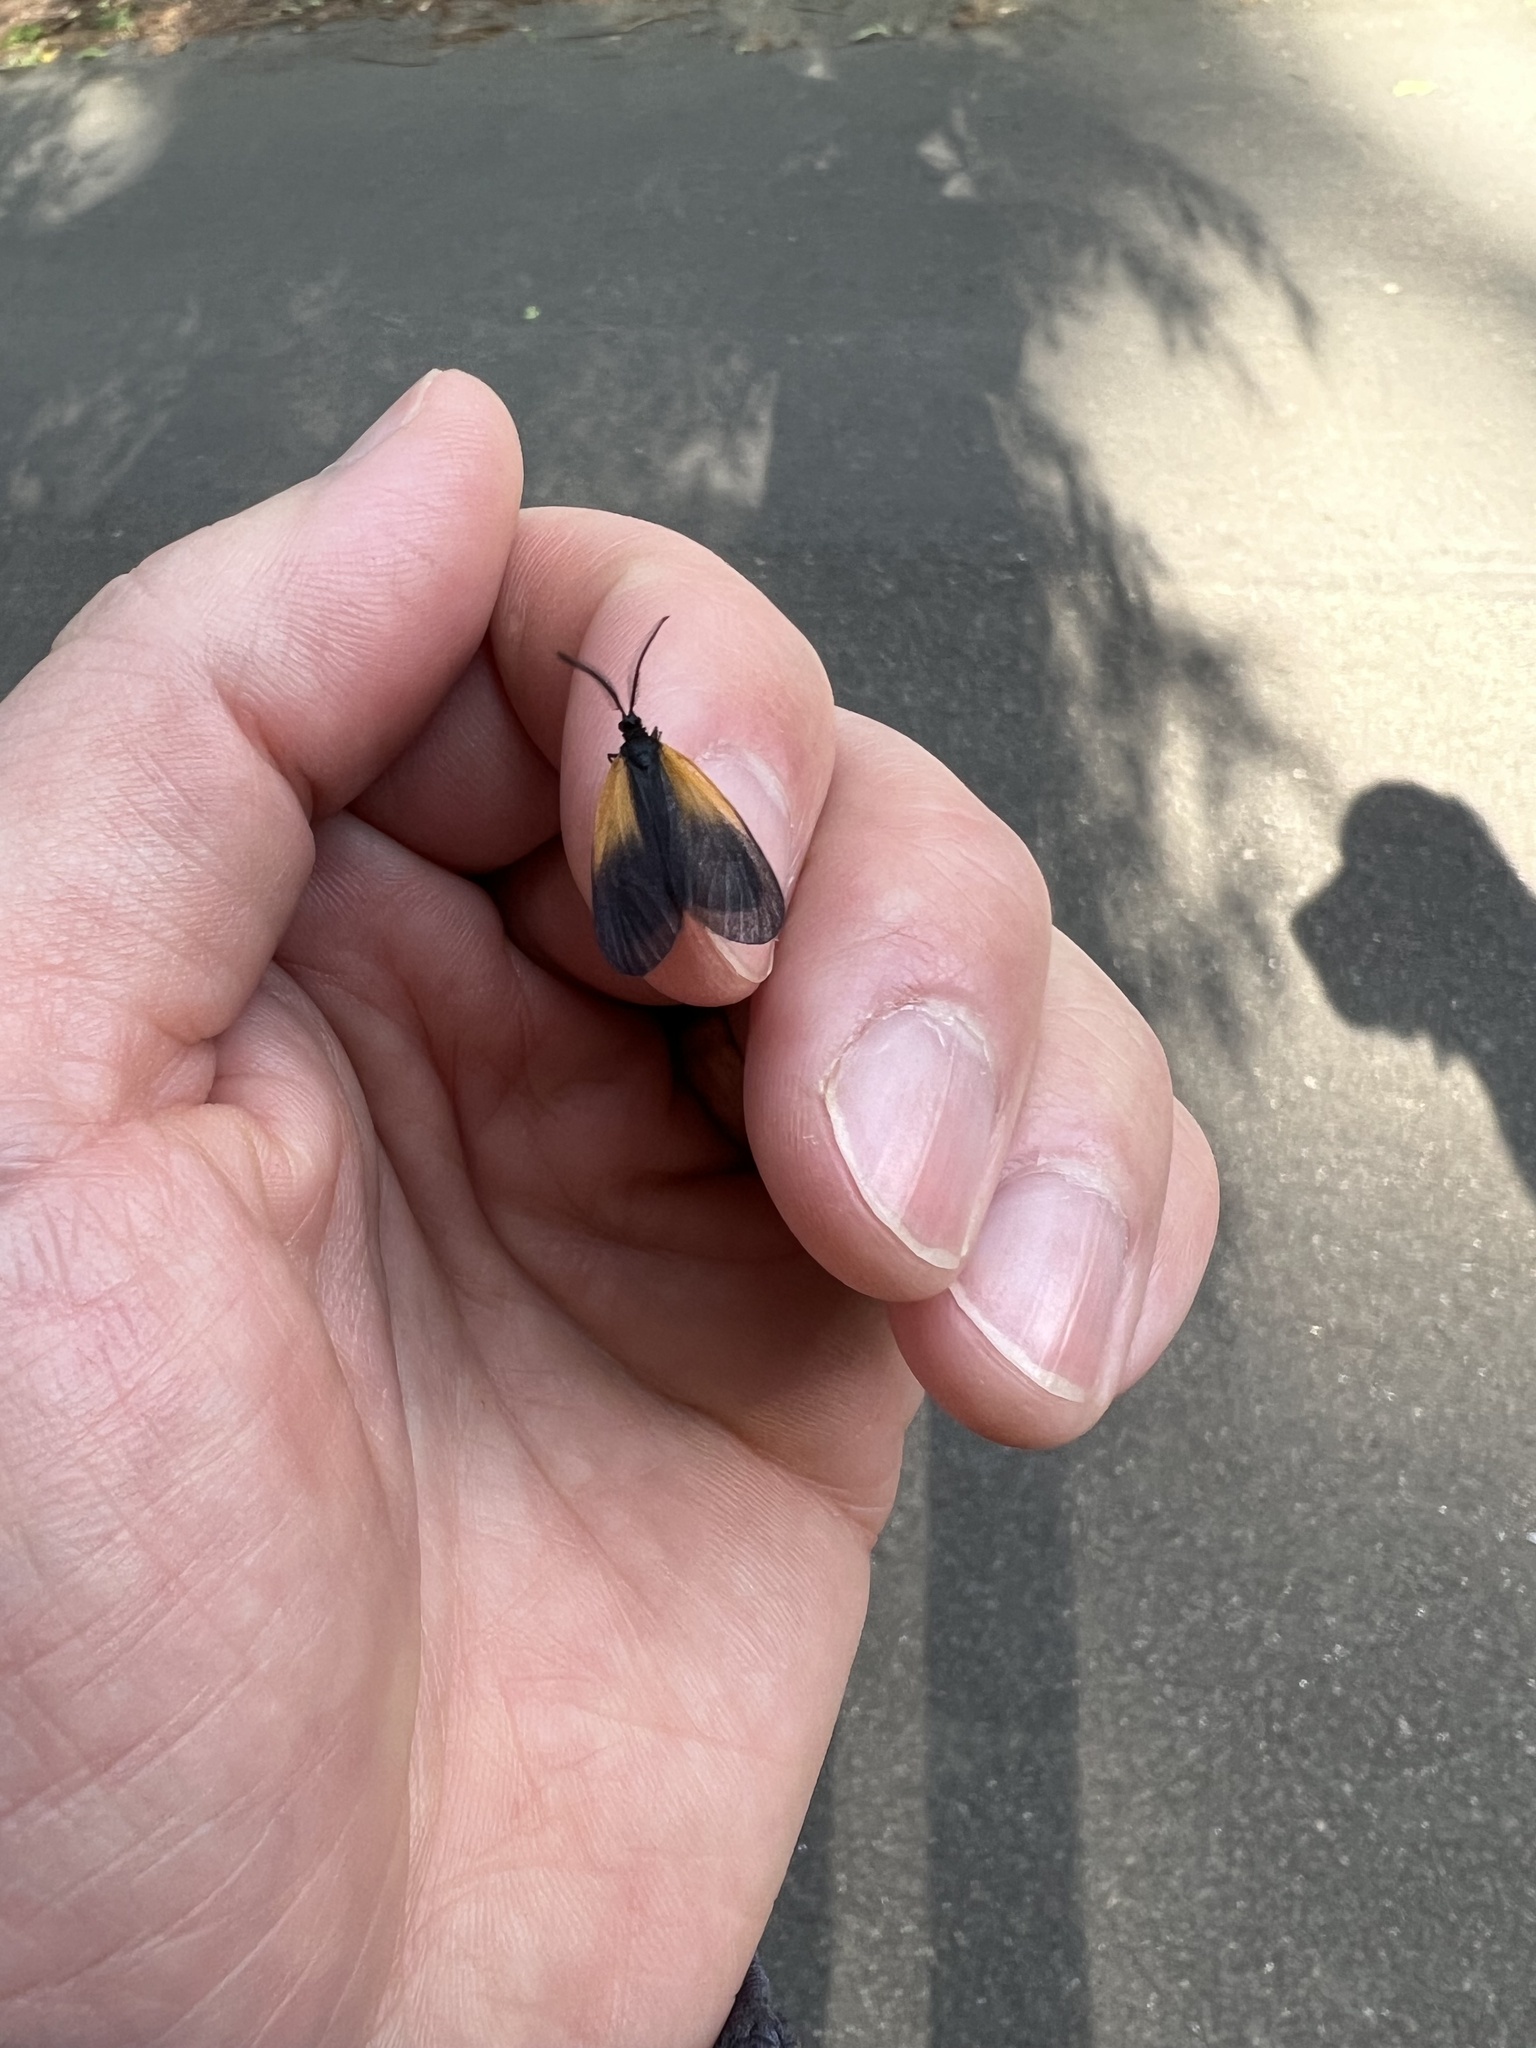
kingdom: Animalia
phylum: Arthropoda
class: Insecta
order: Lepidoptera
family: Zygaenidae
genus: Malthaca
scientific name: Malthaca dimidiata
